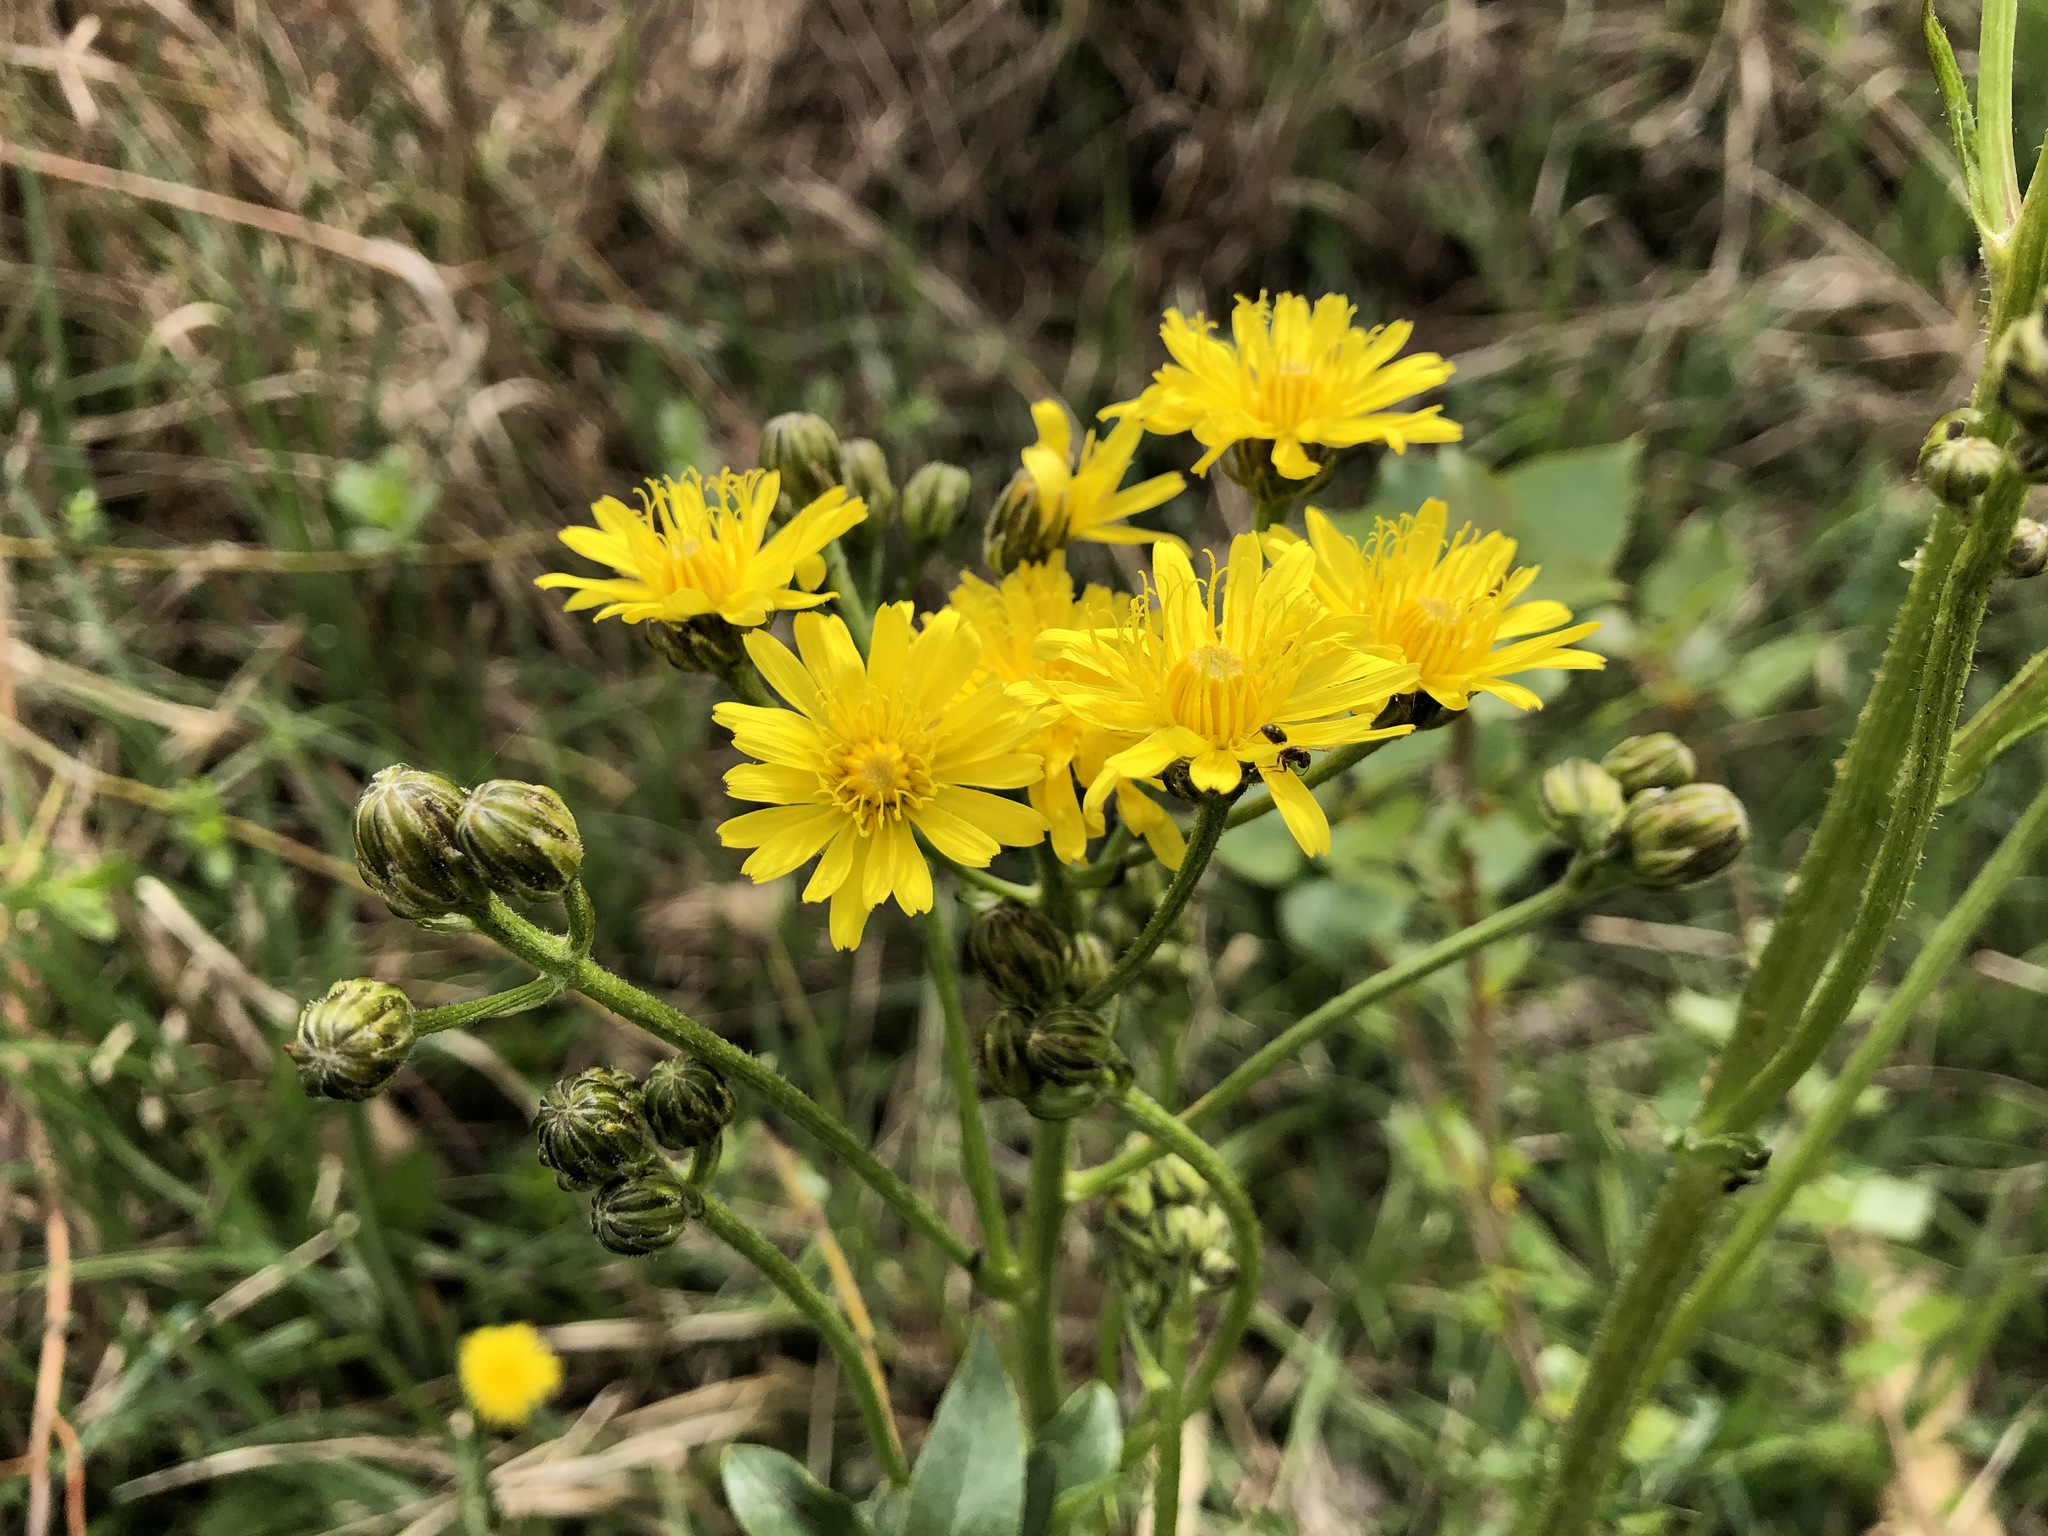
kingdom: Plantae
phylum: Tracheophyta
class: Magnoliopsida
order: Asterales
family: Asteraceae
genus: Crepis
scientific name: Crepis biennis
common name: Rough hawk's-beard
